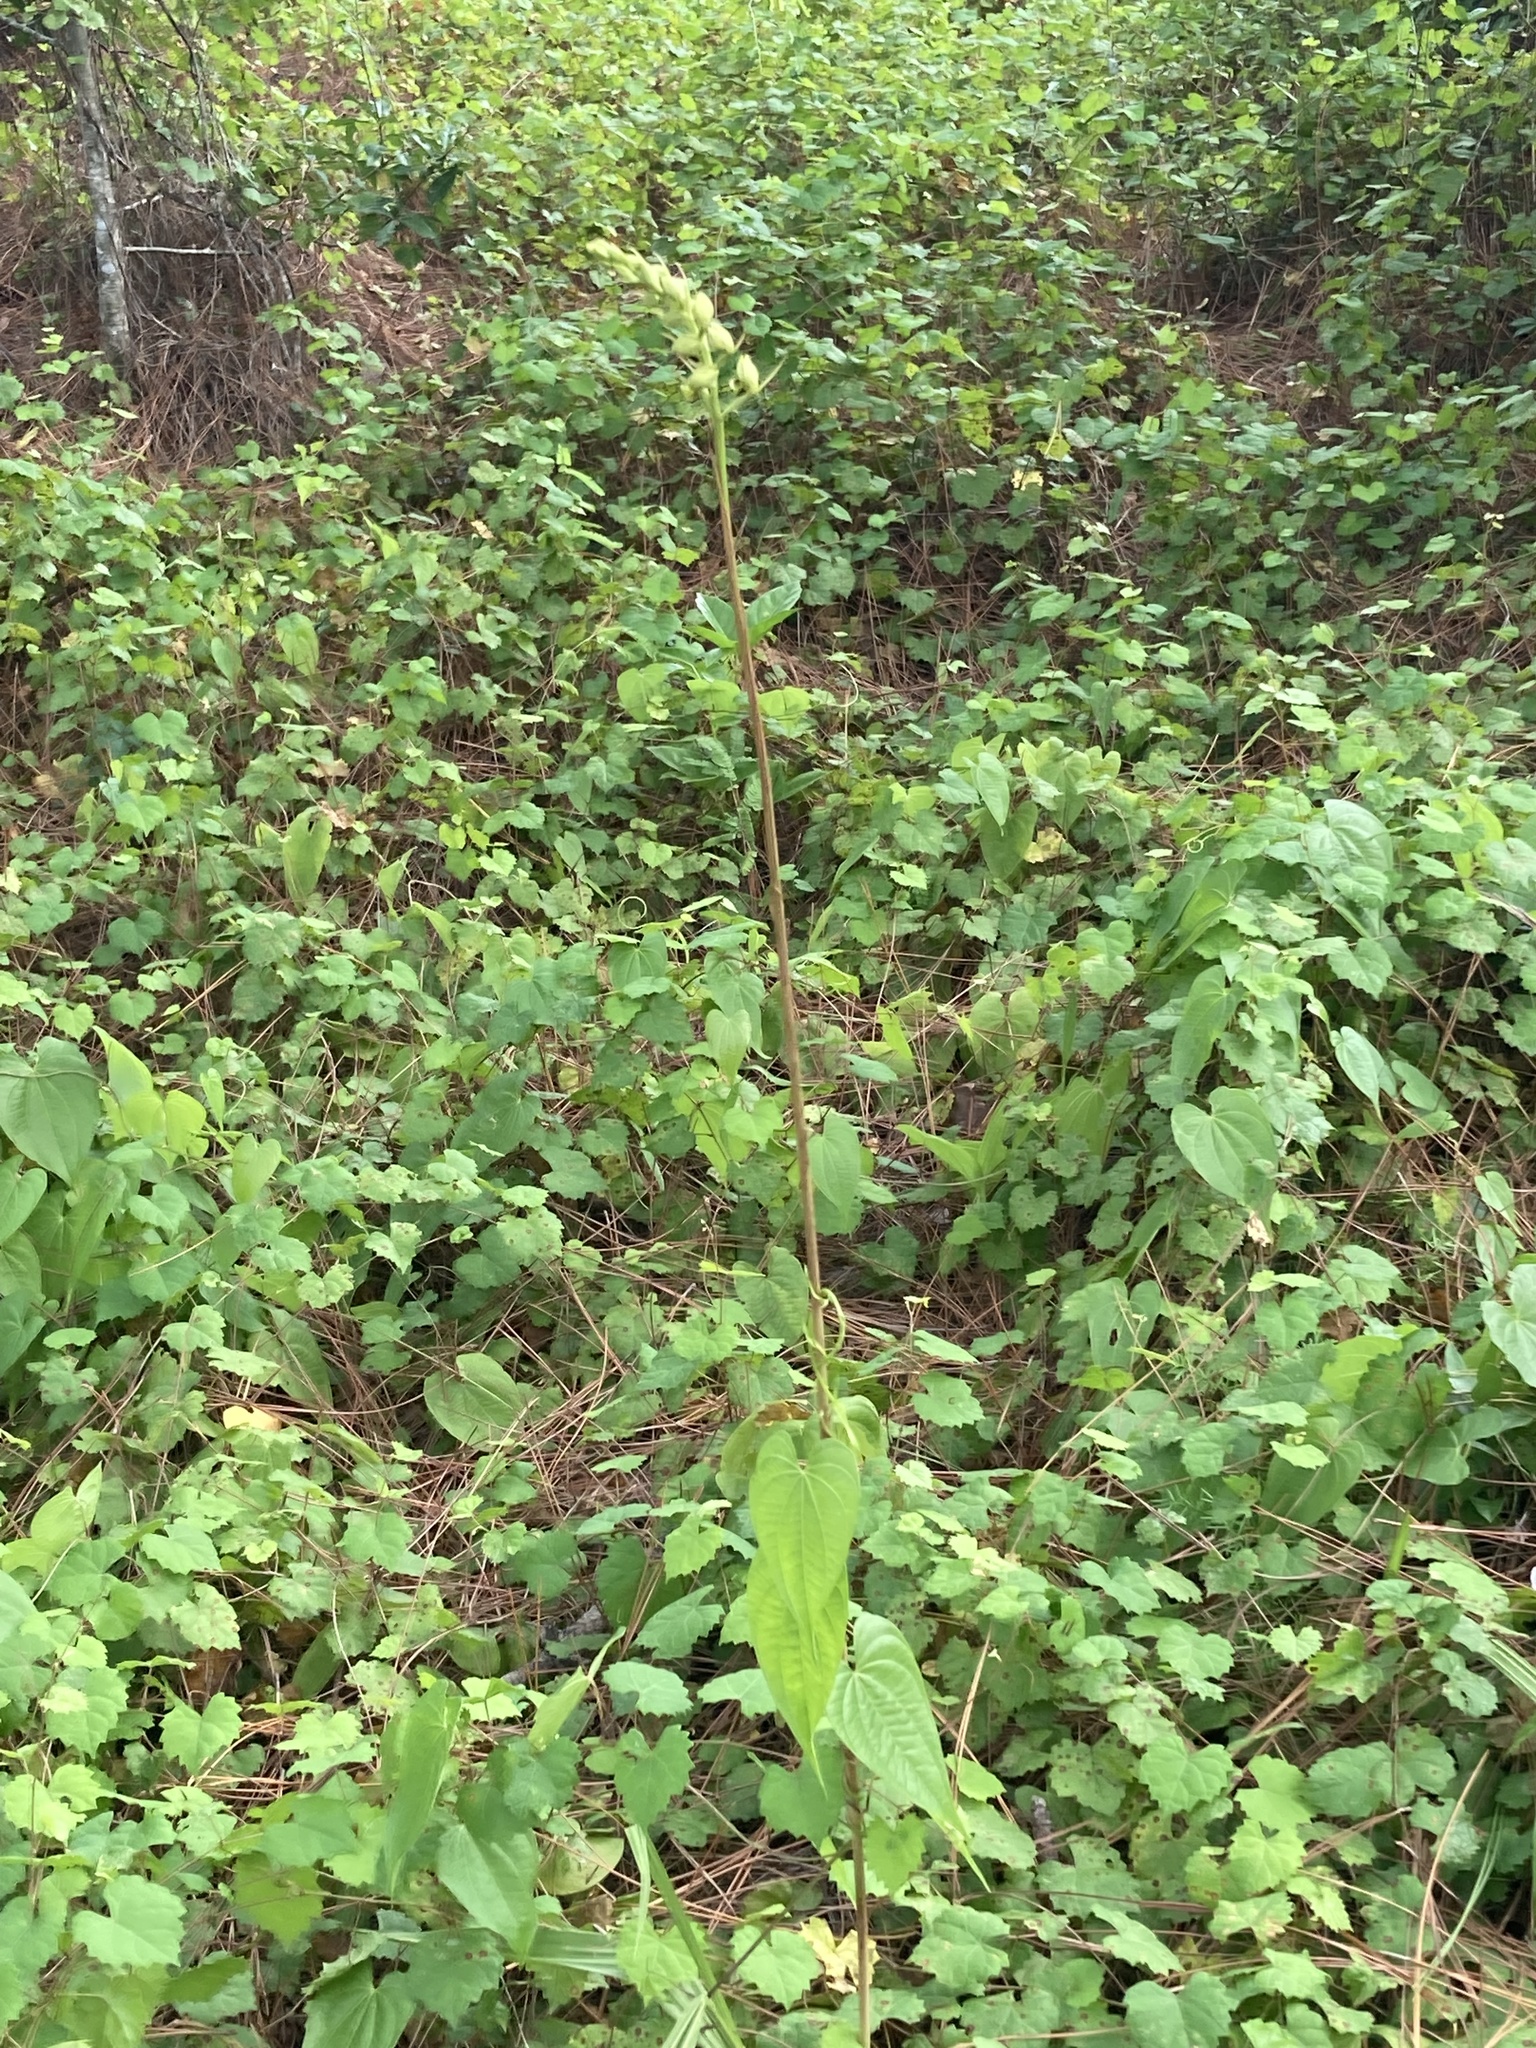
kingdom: Plantae
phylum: Tracheophyta
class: Liliopsida
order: Asparagales
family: Orchidaceae
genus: Eulophia
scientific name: Eulophia ecristata
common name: Giant orchid
